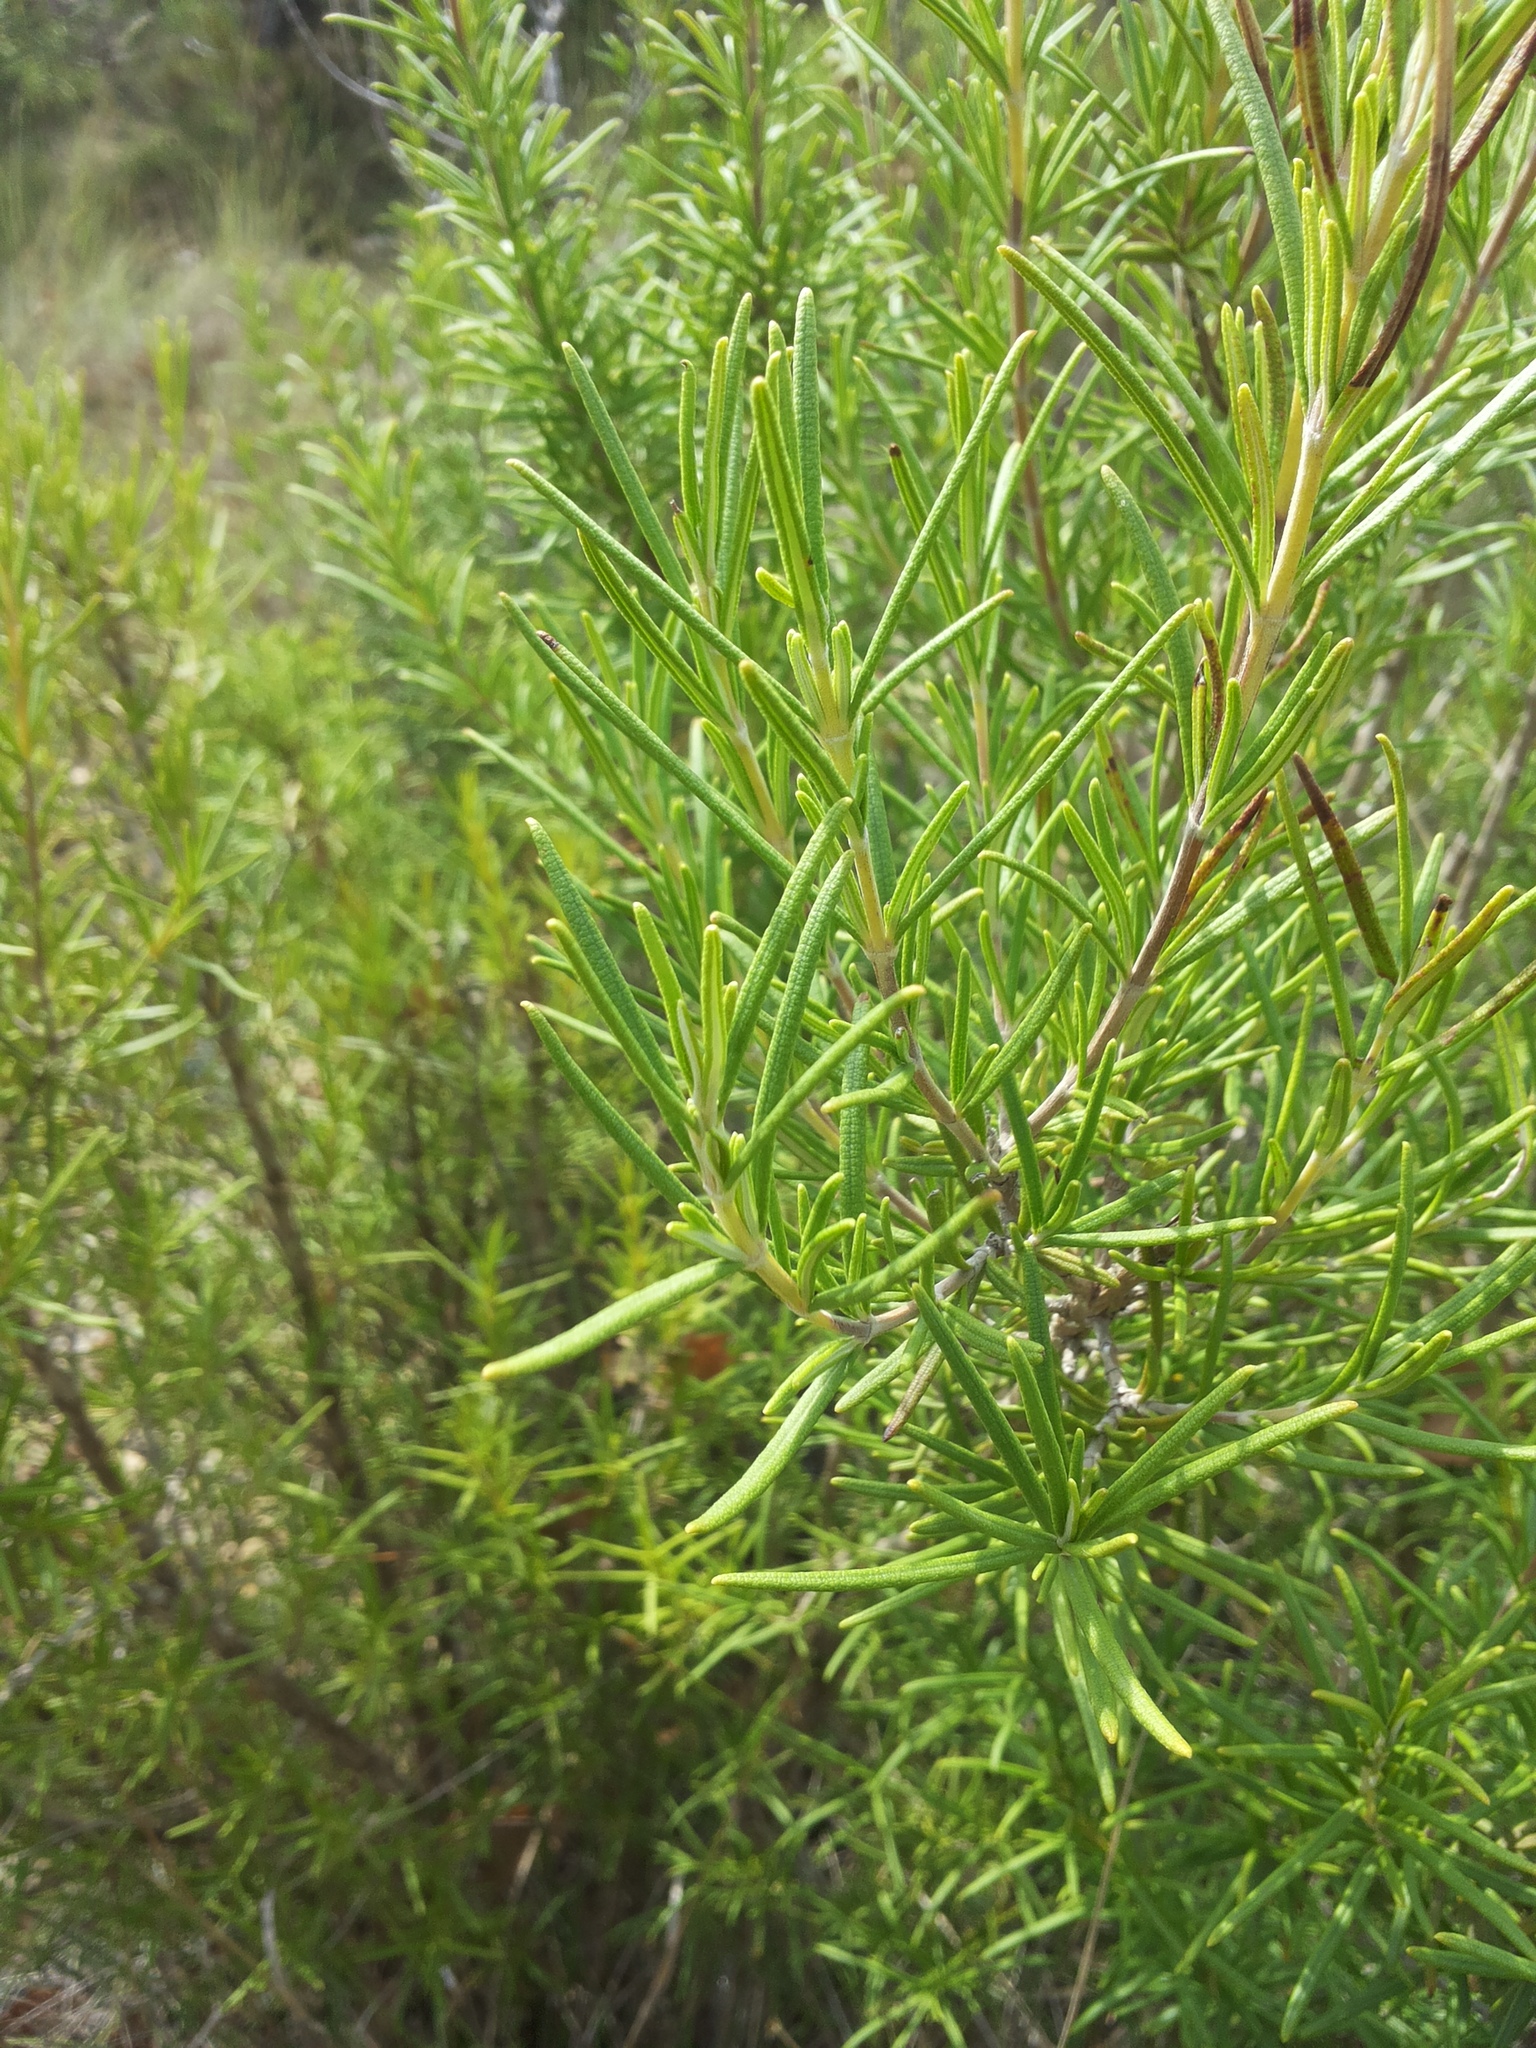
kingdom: Plantae
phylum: Tracheophyta
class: Magnoliopsida
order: Lamiales
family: Lamiaceae
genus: Salvia
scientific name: Salvia rosmarinus
